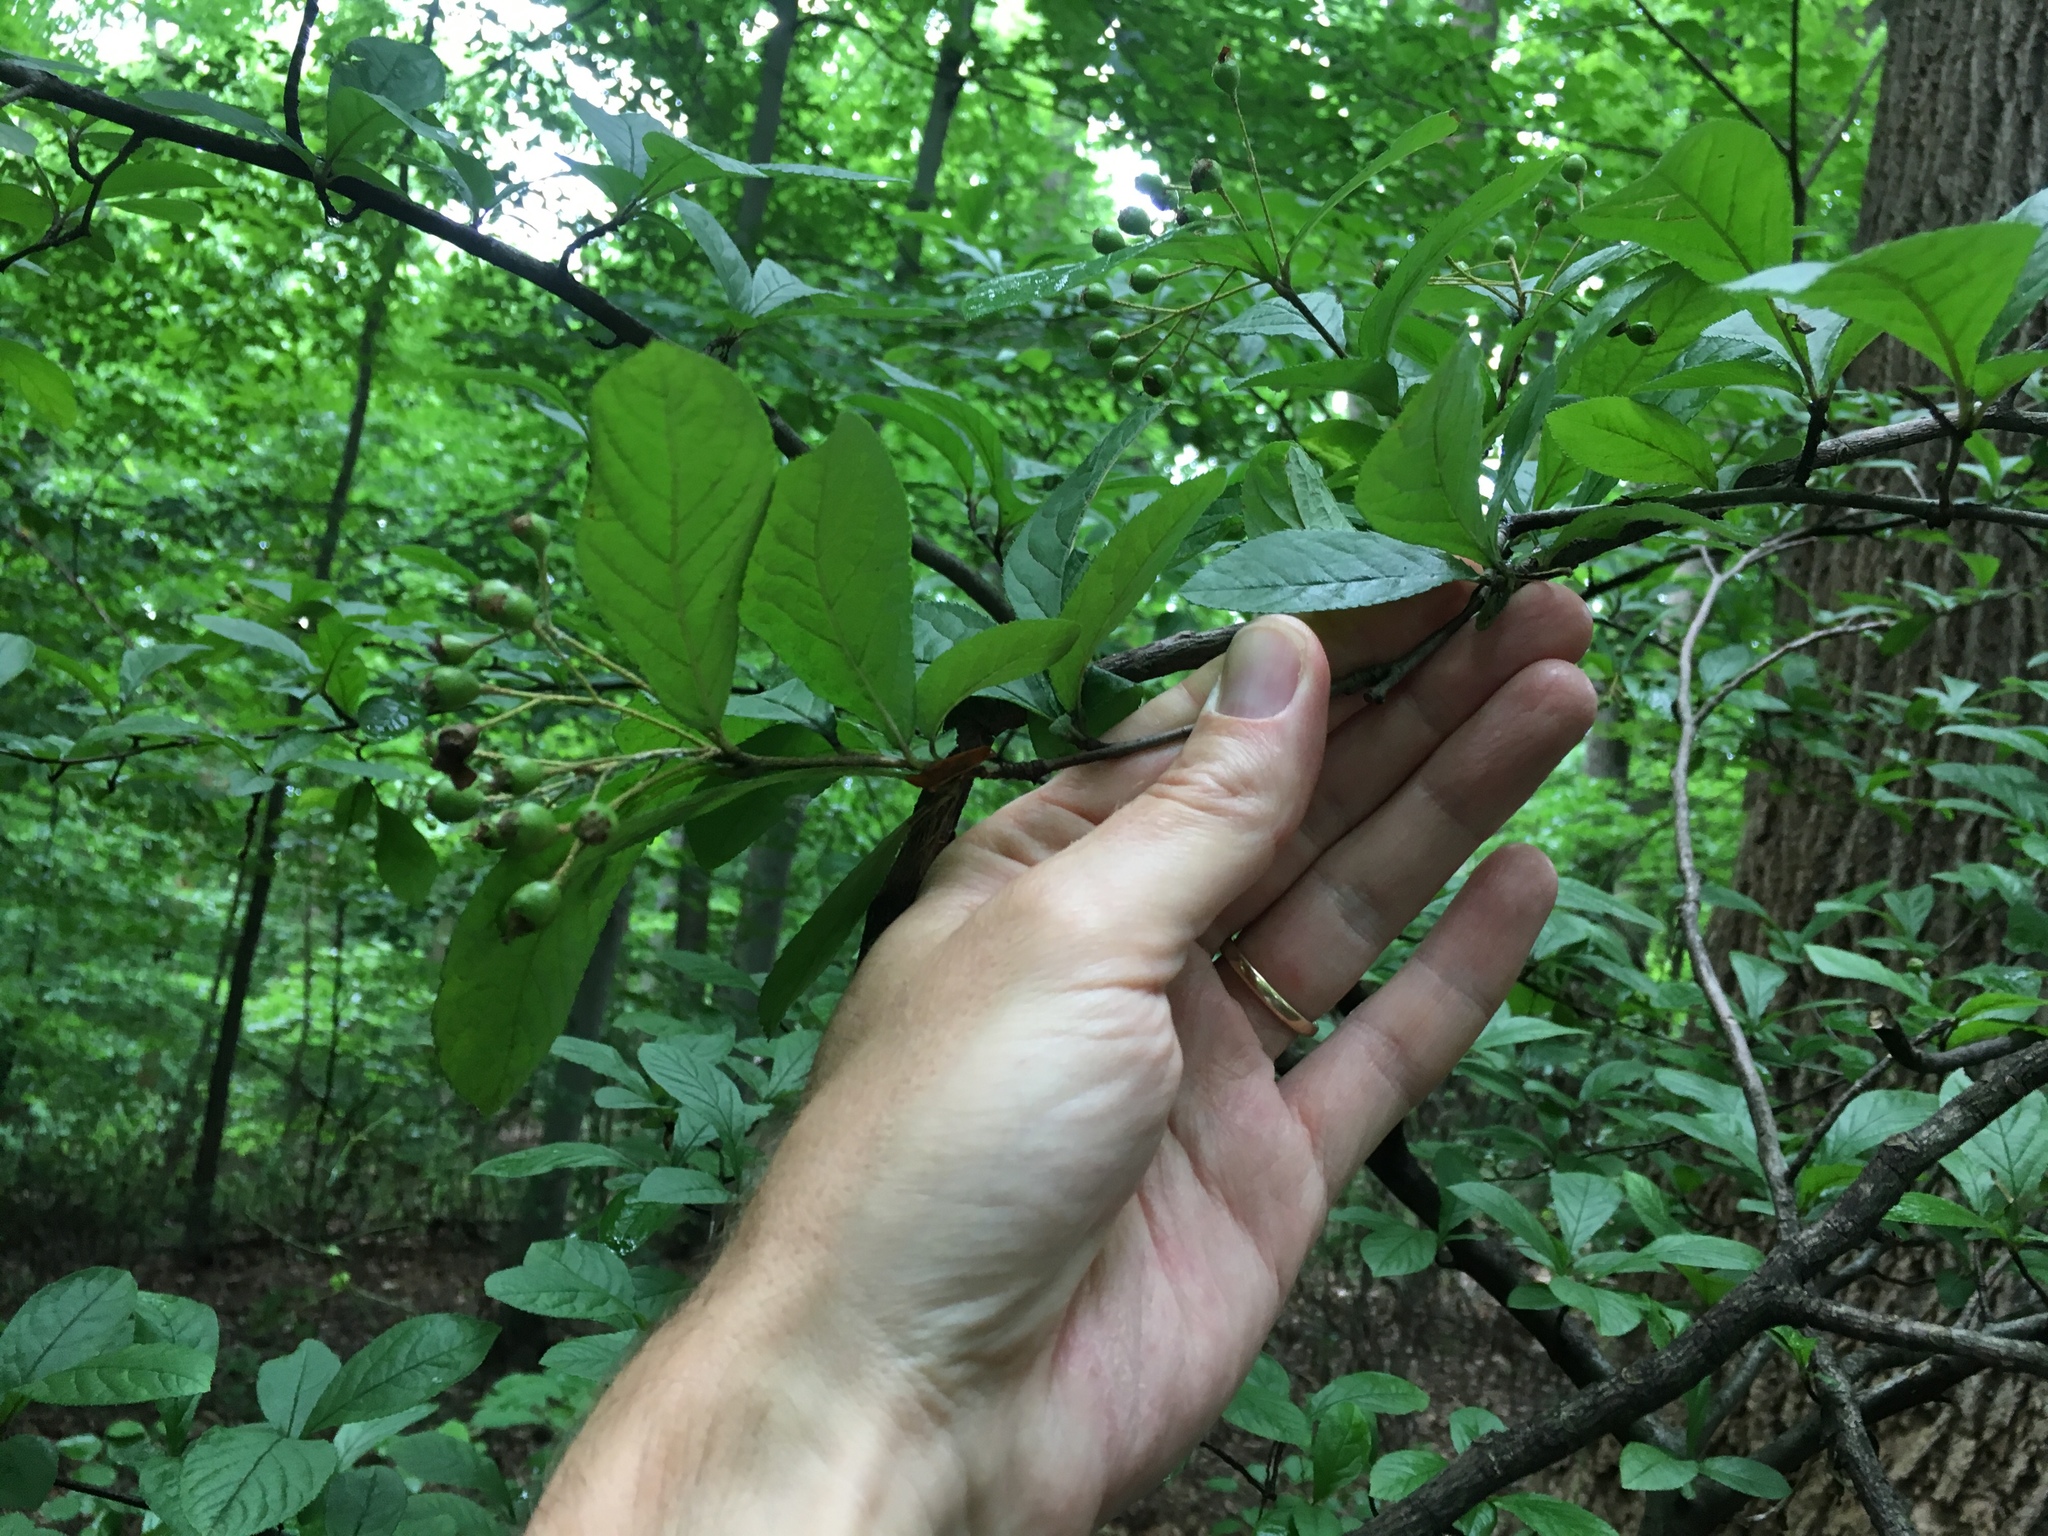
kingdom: Plantae
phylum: Tracheophyta
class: Magnoliopsida
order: Rosales
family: Rosaceae
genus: Pourthiaea
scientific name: Pourthiaea villosa
